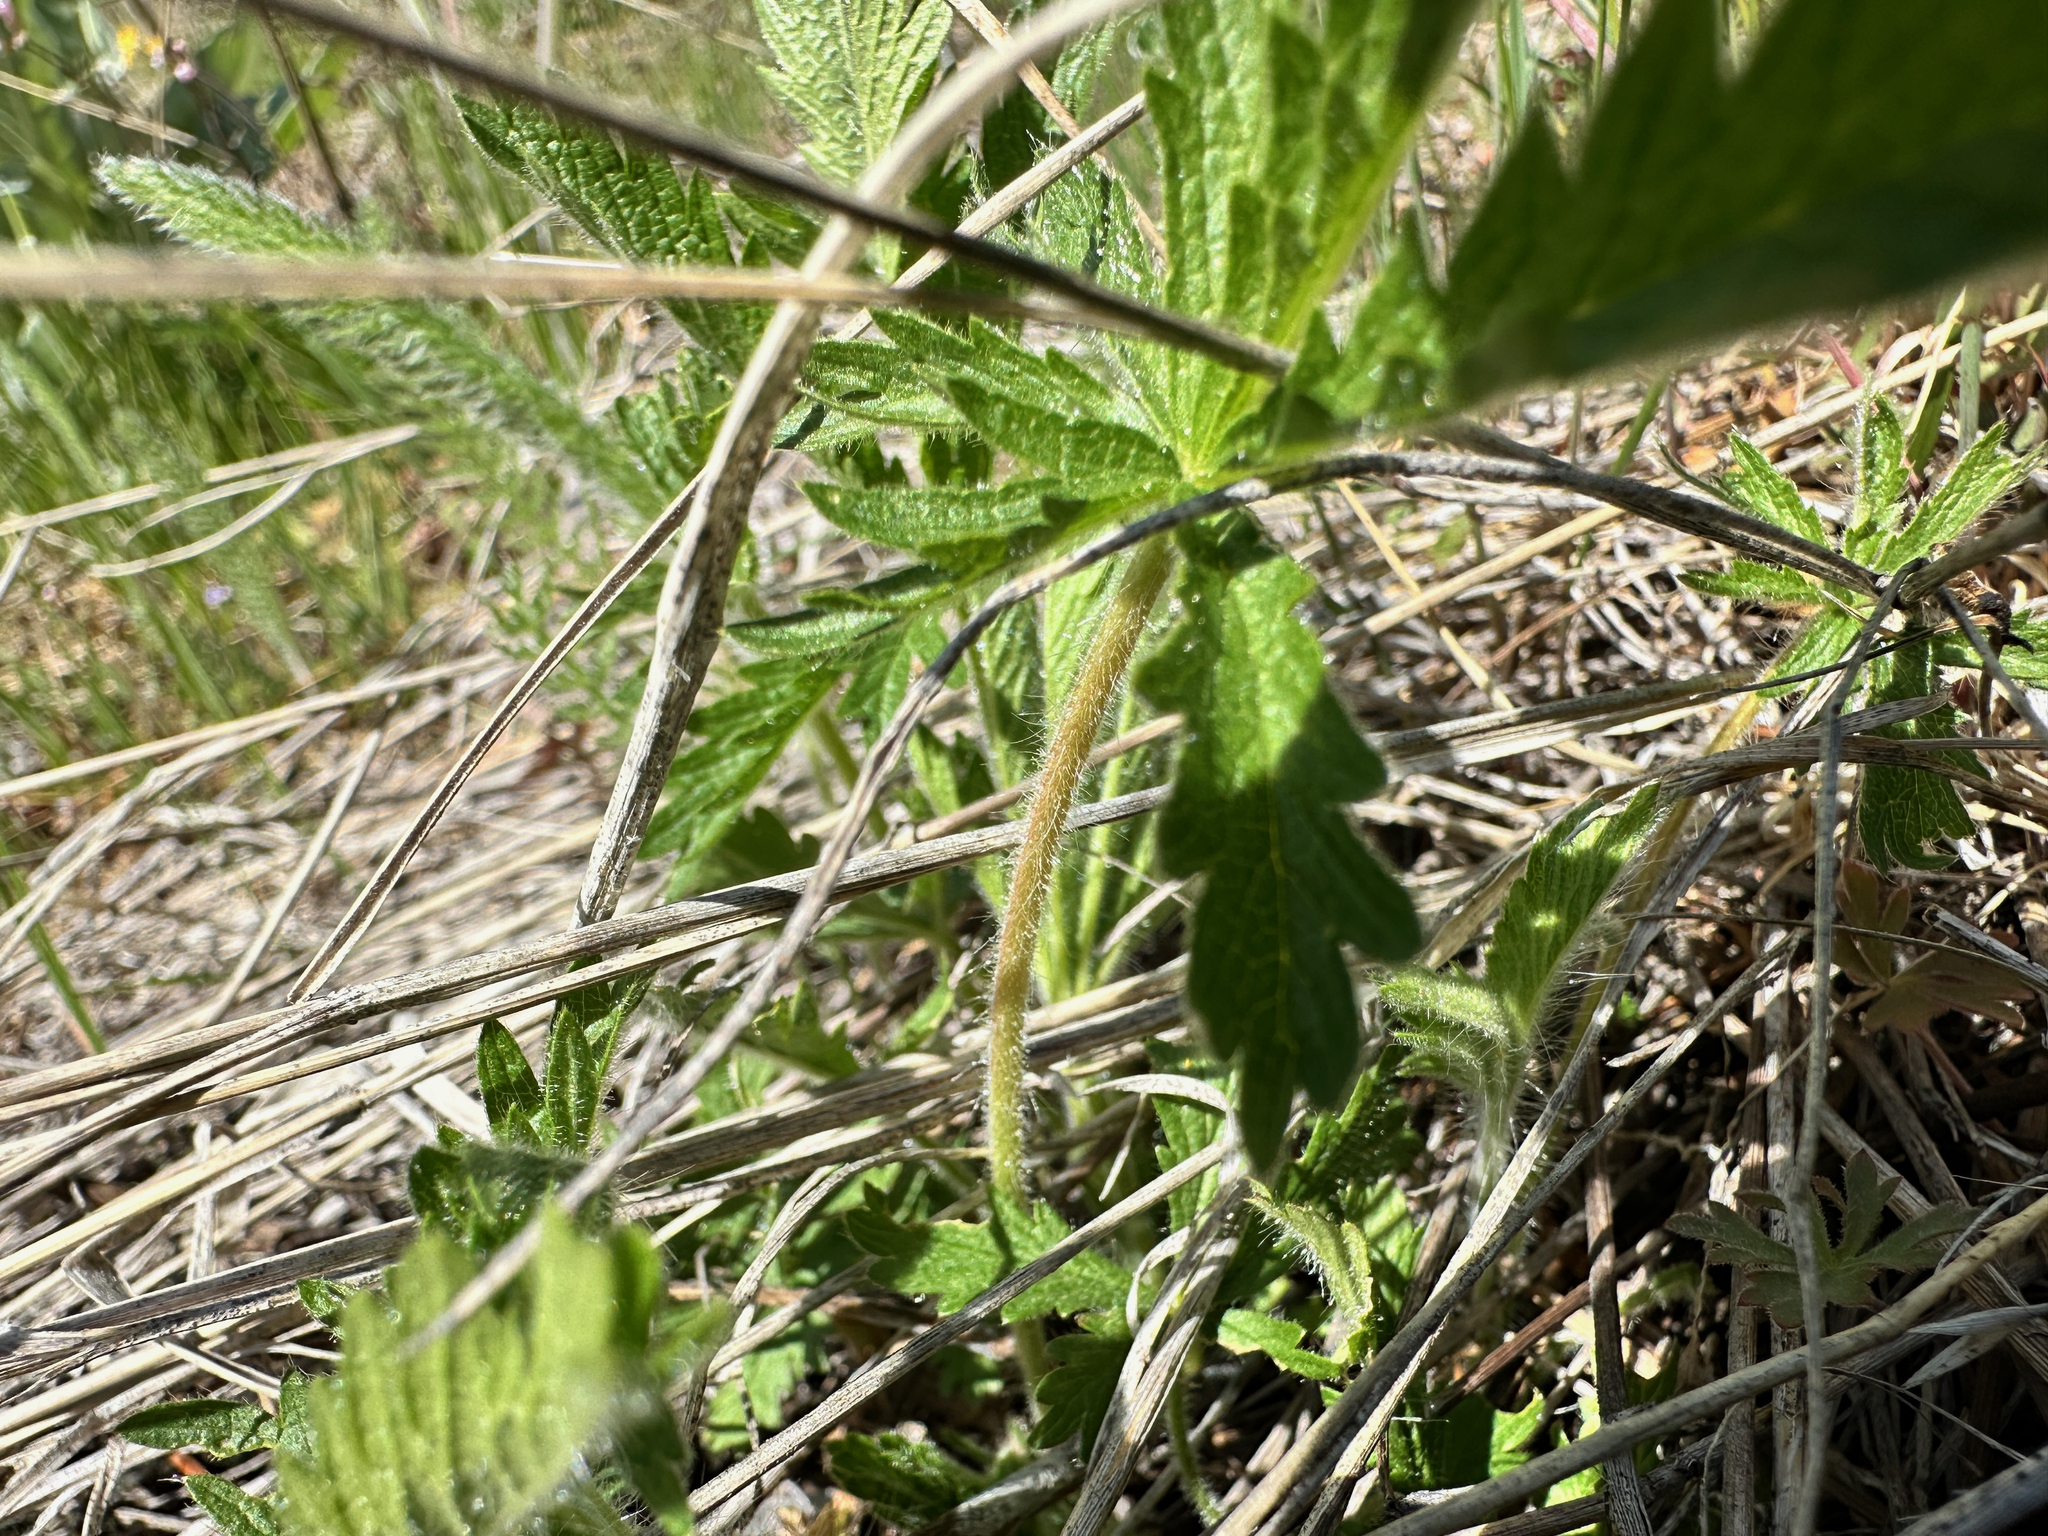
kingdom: Plantae
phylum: Tracheophyta
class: Magnoliopsida
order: Rosales
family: Rosaceae
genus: Potentilla
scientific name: Potentilla recta
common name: Sulphur cinquefoil
